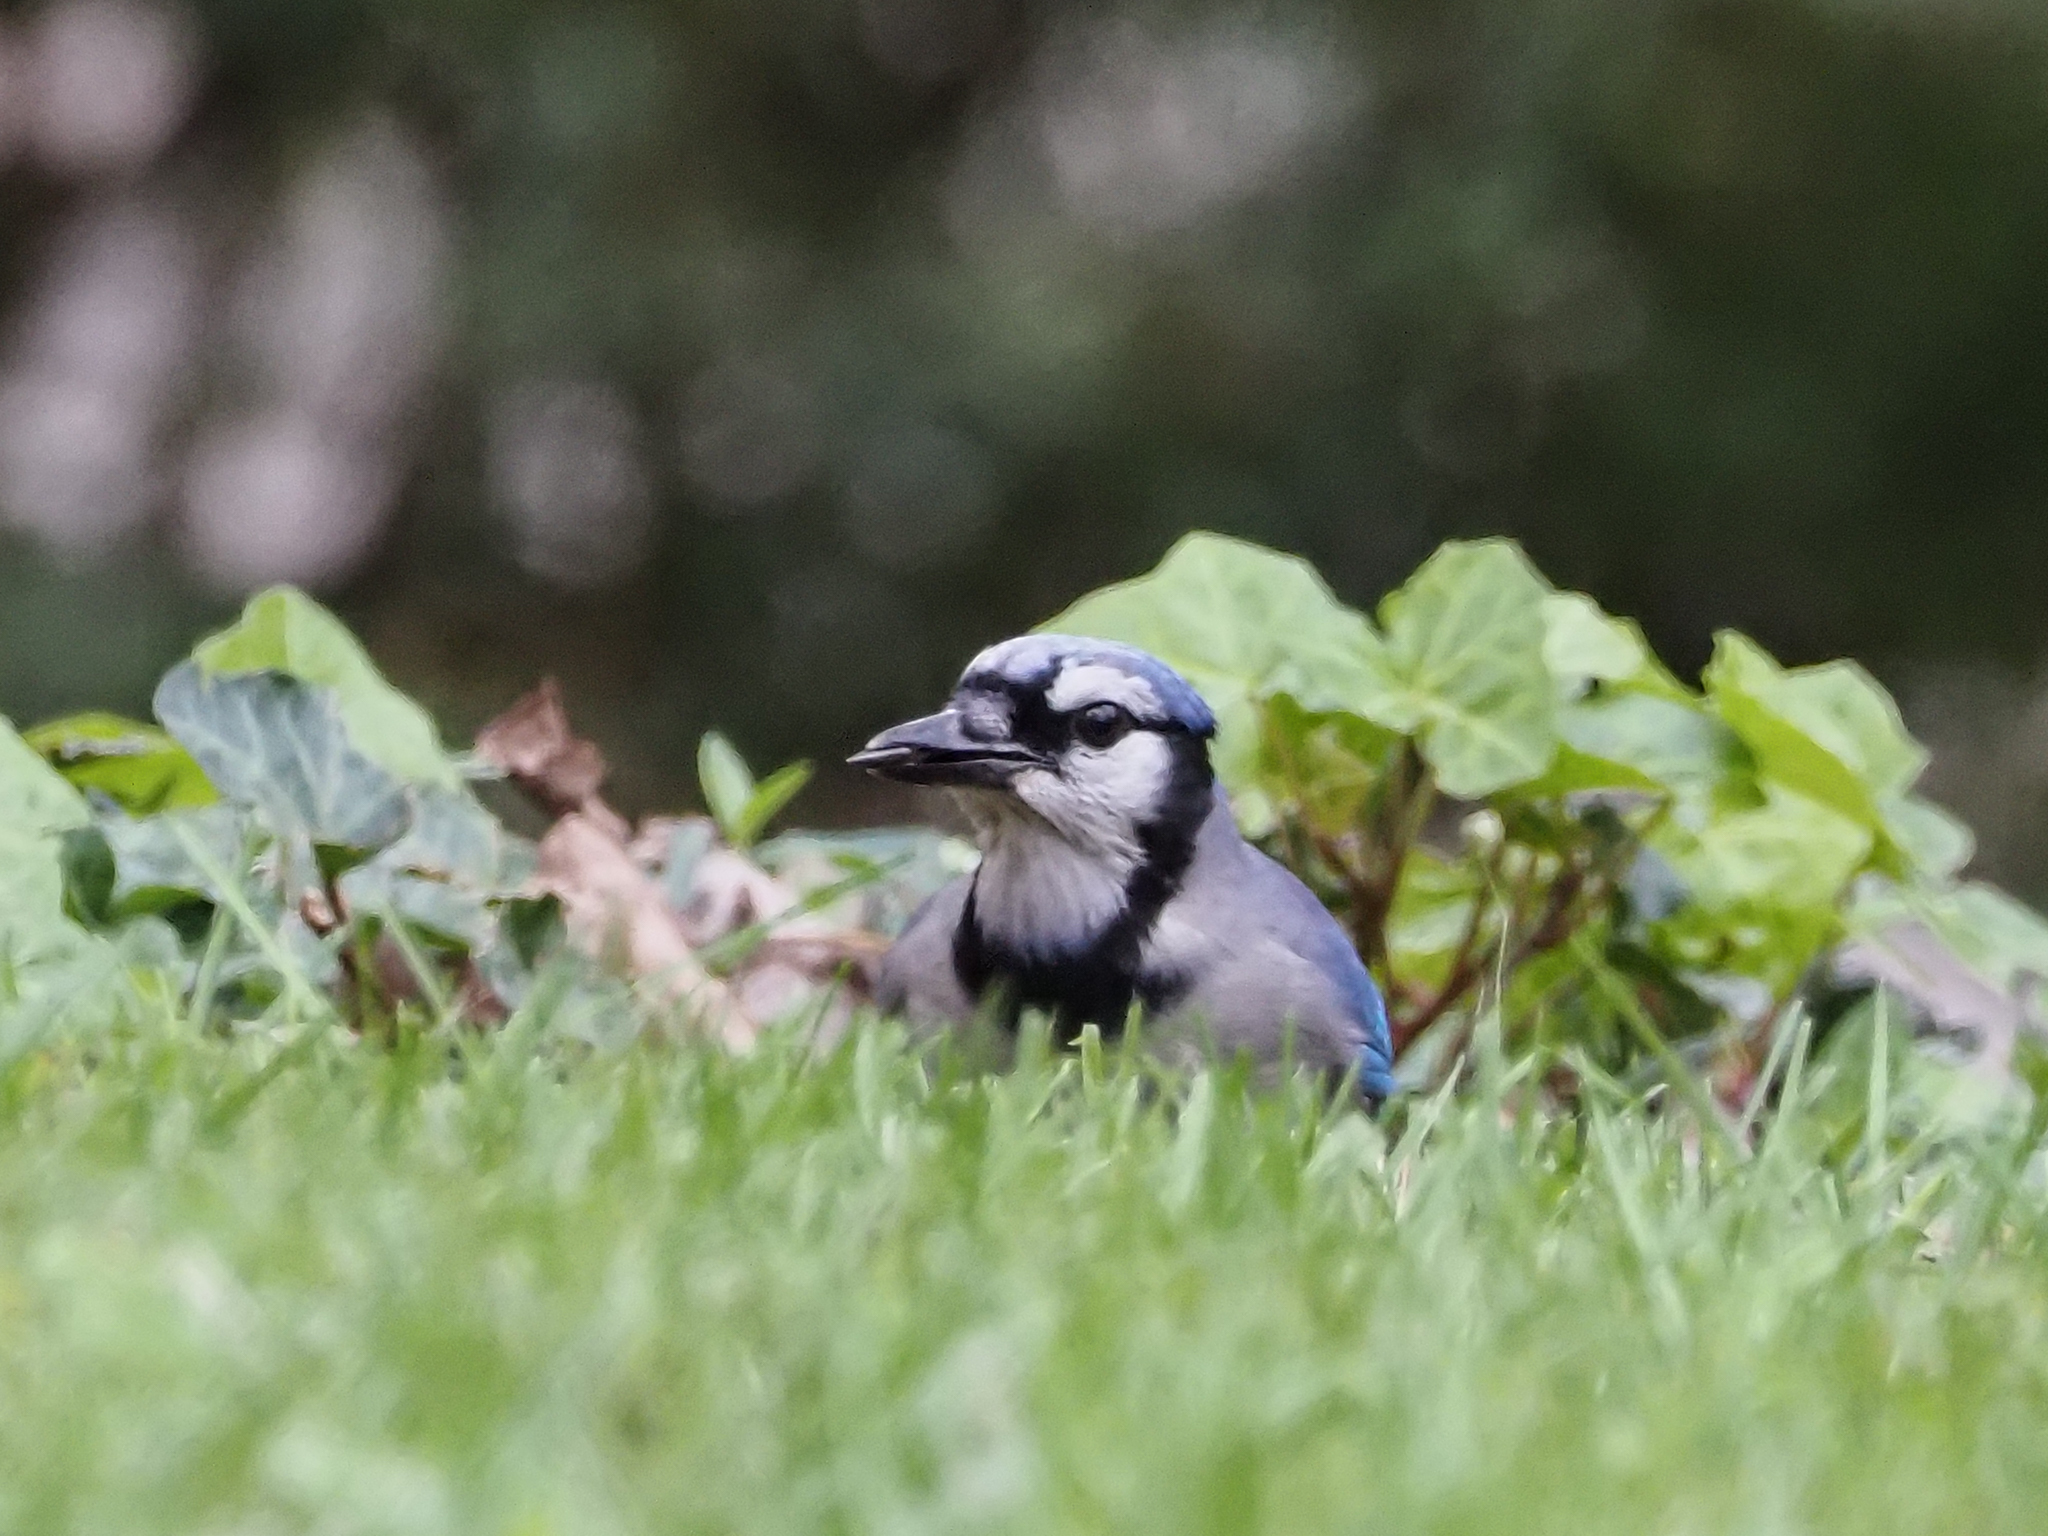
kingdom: Animalia
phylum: Chordata
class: Aves
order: Passeriformes
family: Corvidae
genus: Cyanocitta
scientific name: Cyanocitta cristata
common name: Blue jay
